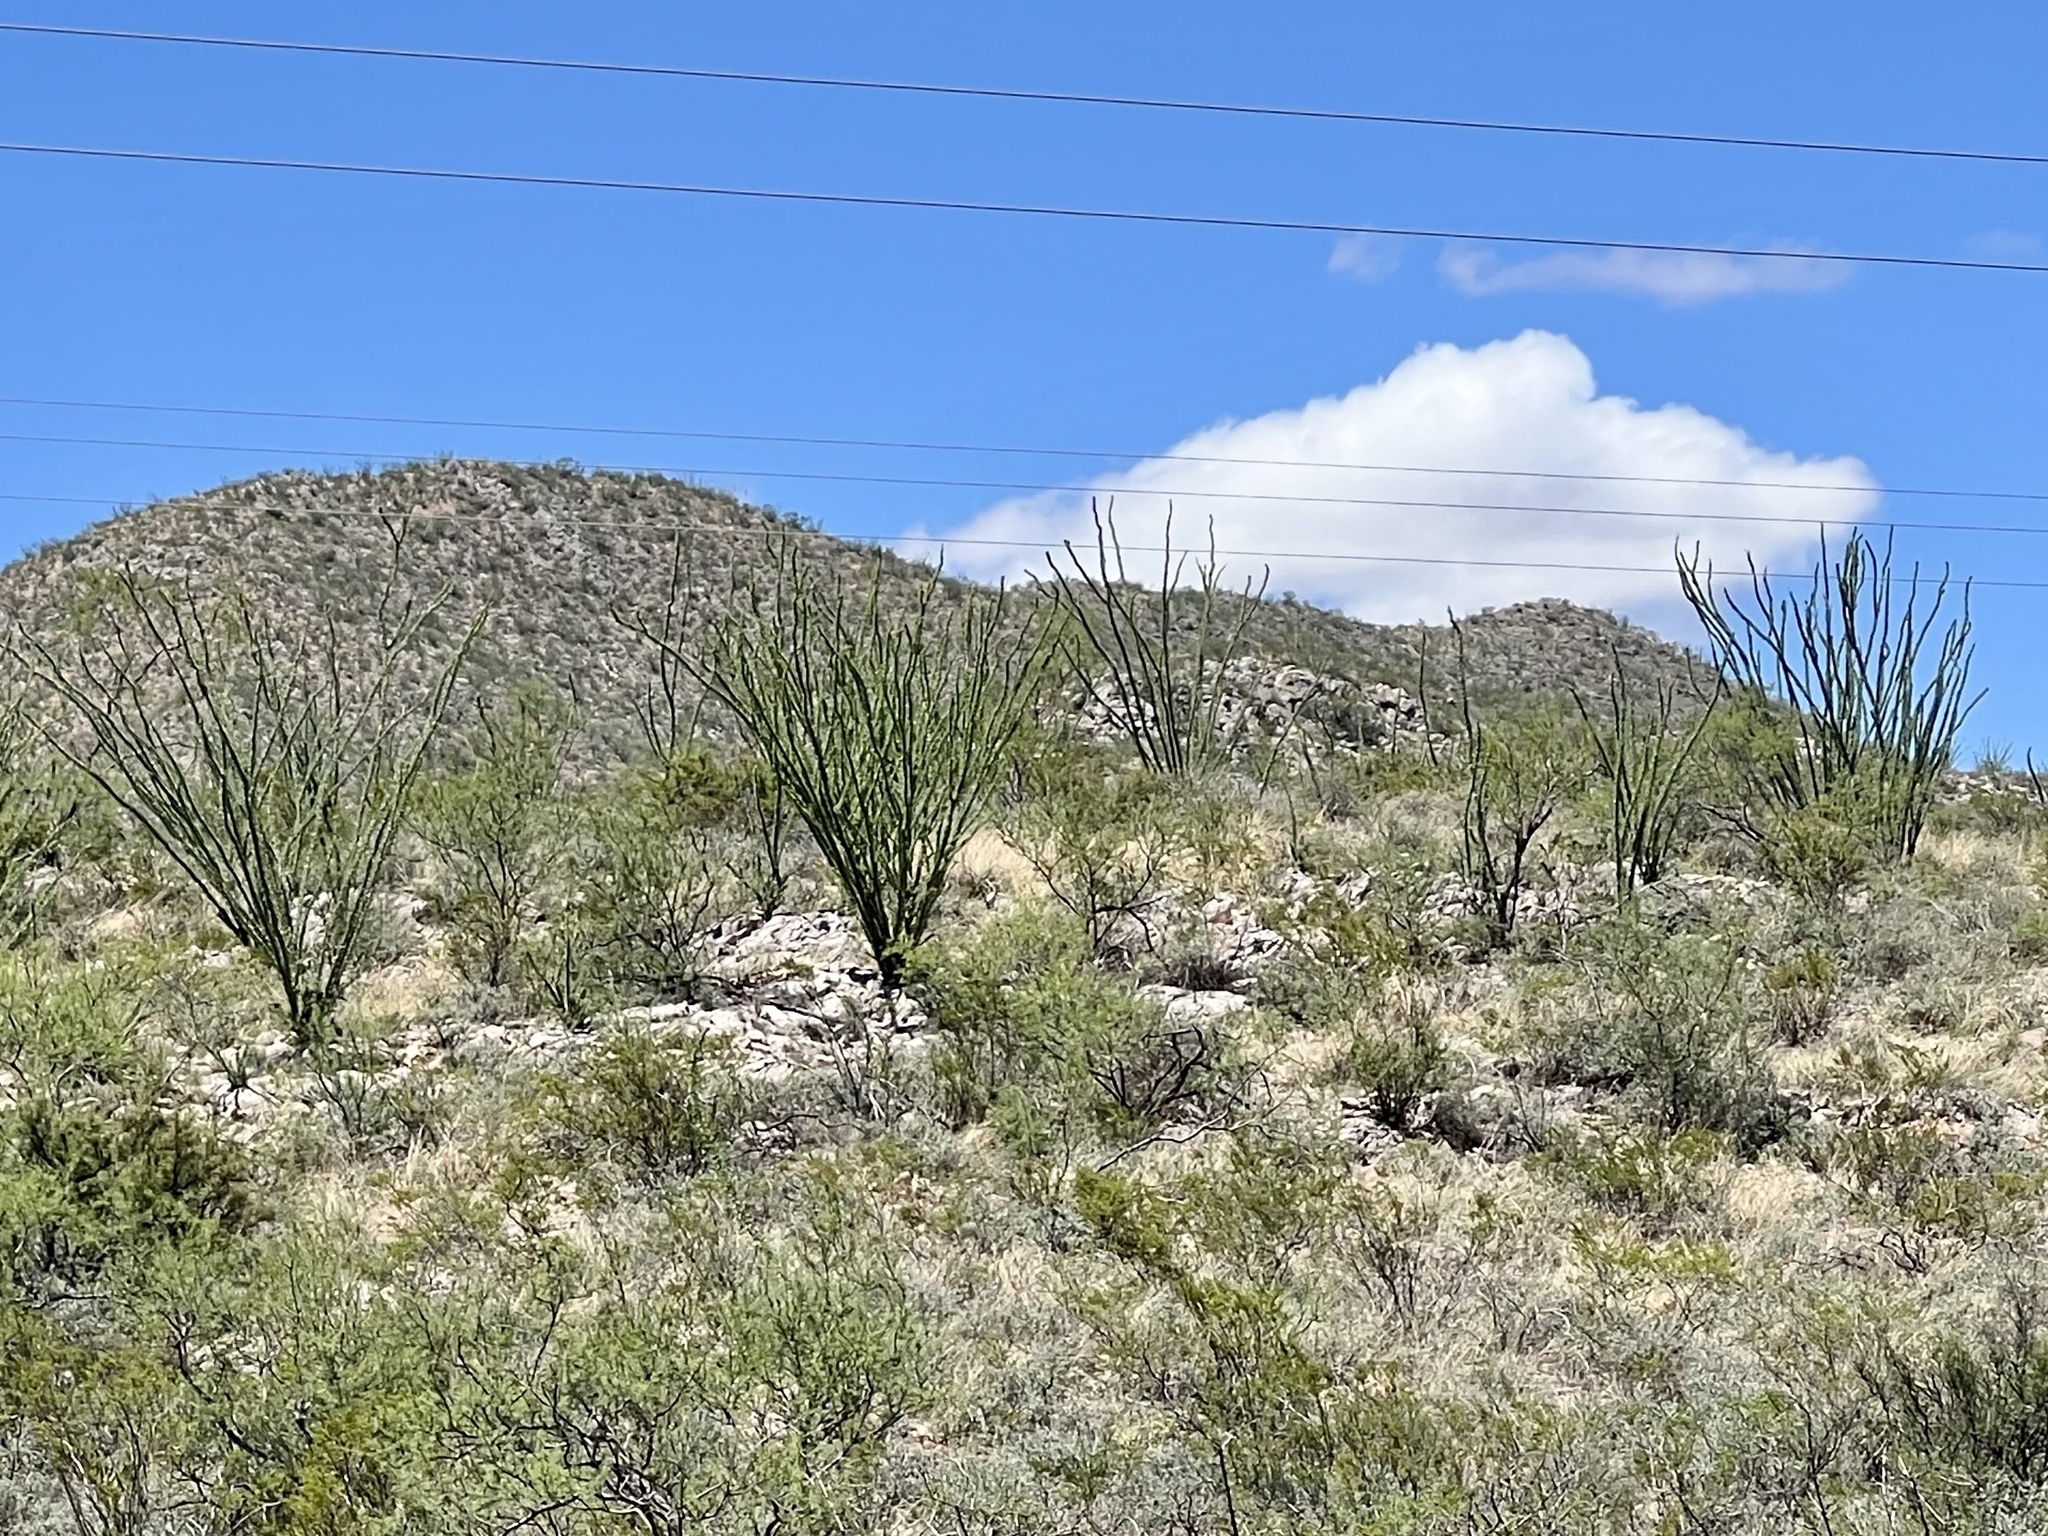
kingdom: Plantae
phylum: Tracheophyta
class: Magnoliopsida
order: Ericales
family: Fouquieriaceae
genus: Fouquieria
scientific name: Fouquieria splendens
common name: Vine-cactus
